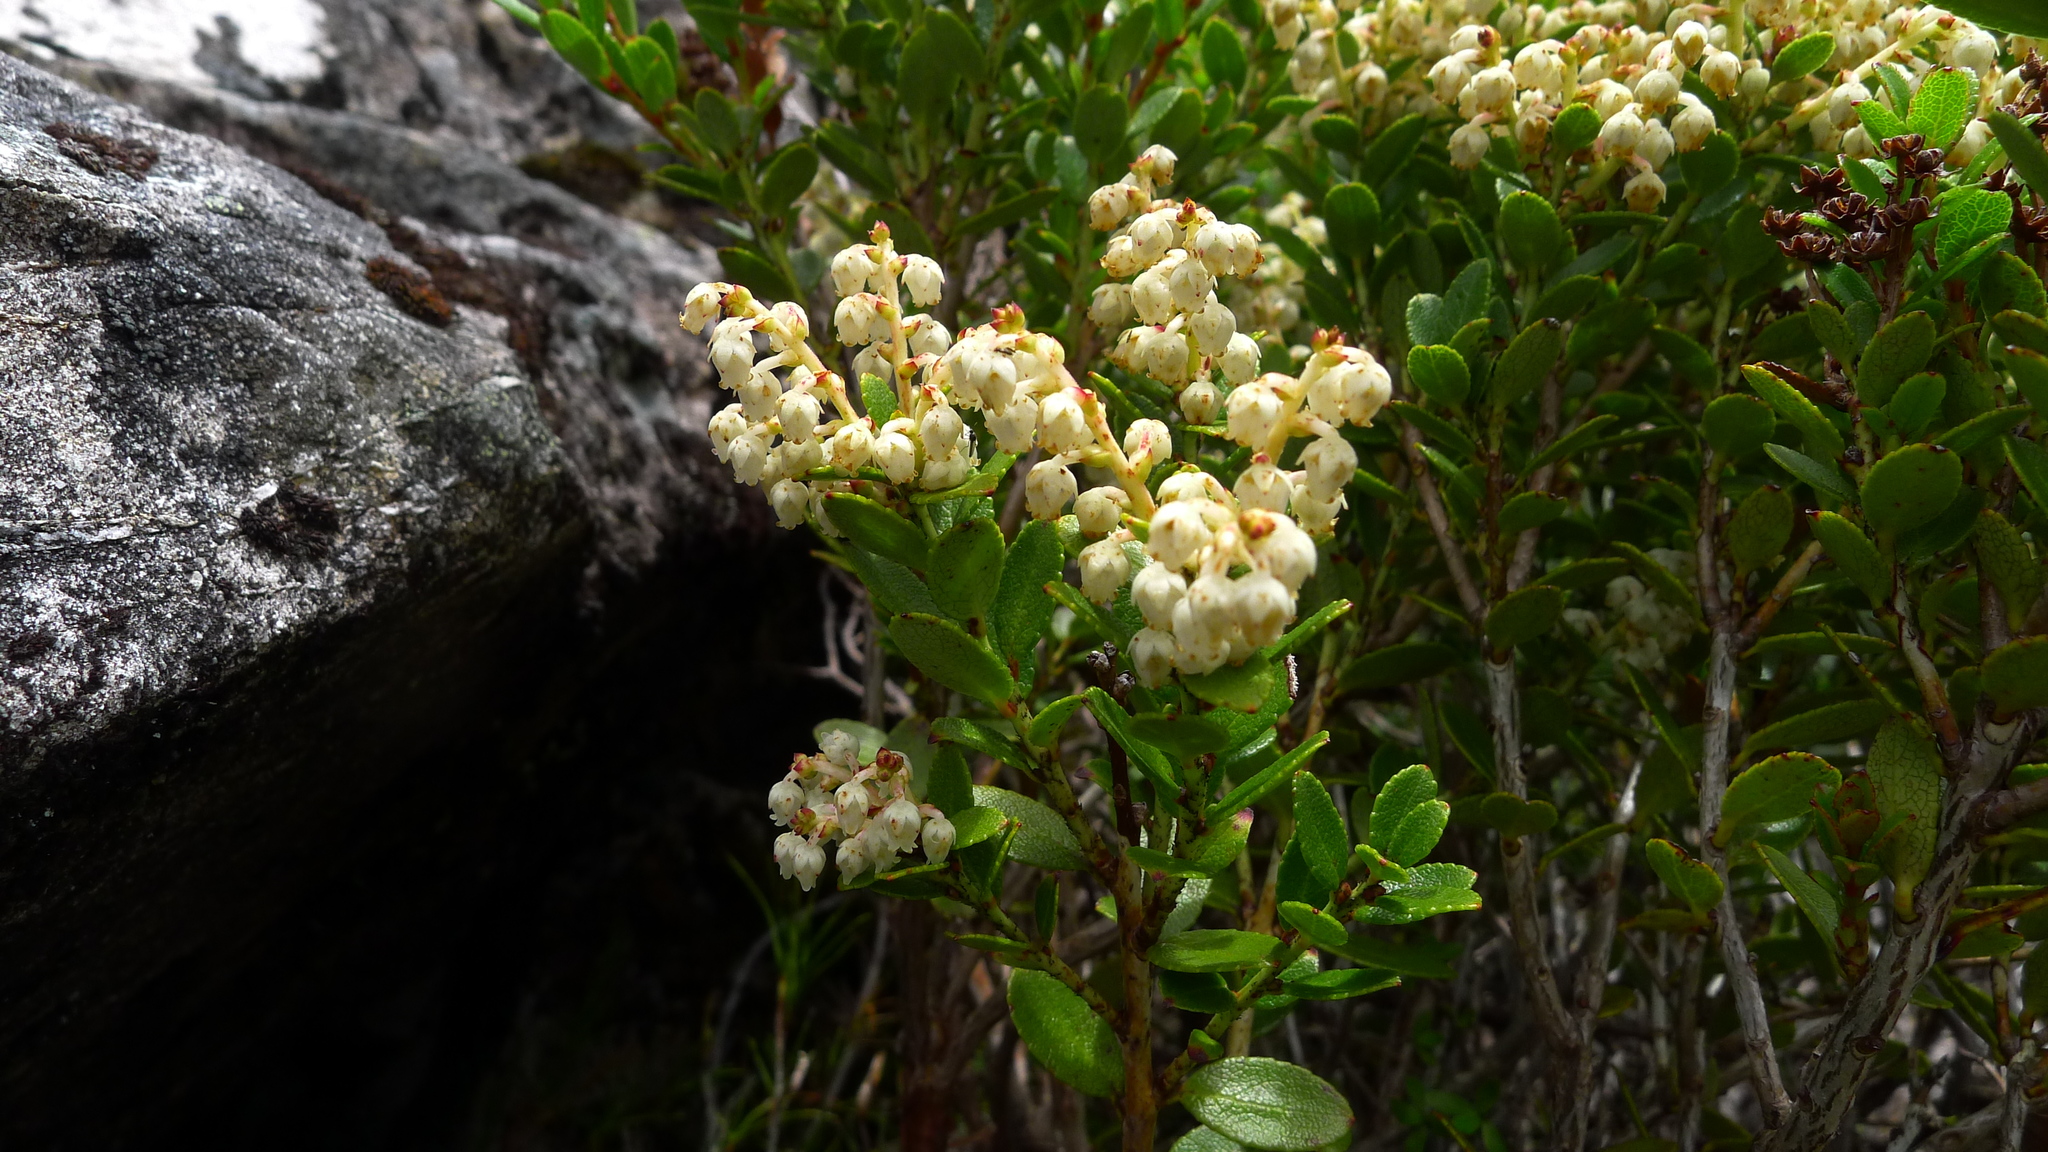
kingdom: Plantae
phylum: Tracheophyta
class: Magnoliopsida
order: Ericales
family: Ericaceae
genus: Gaultheria
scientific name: Gaultheria crassa
